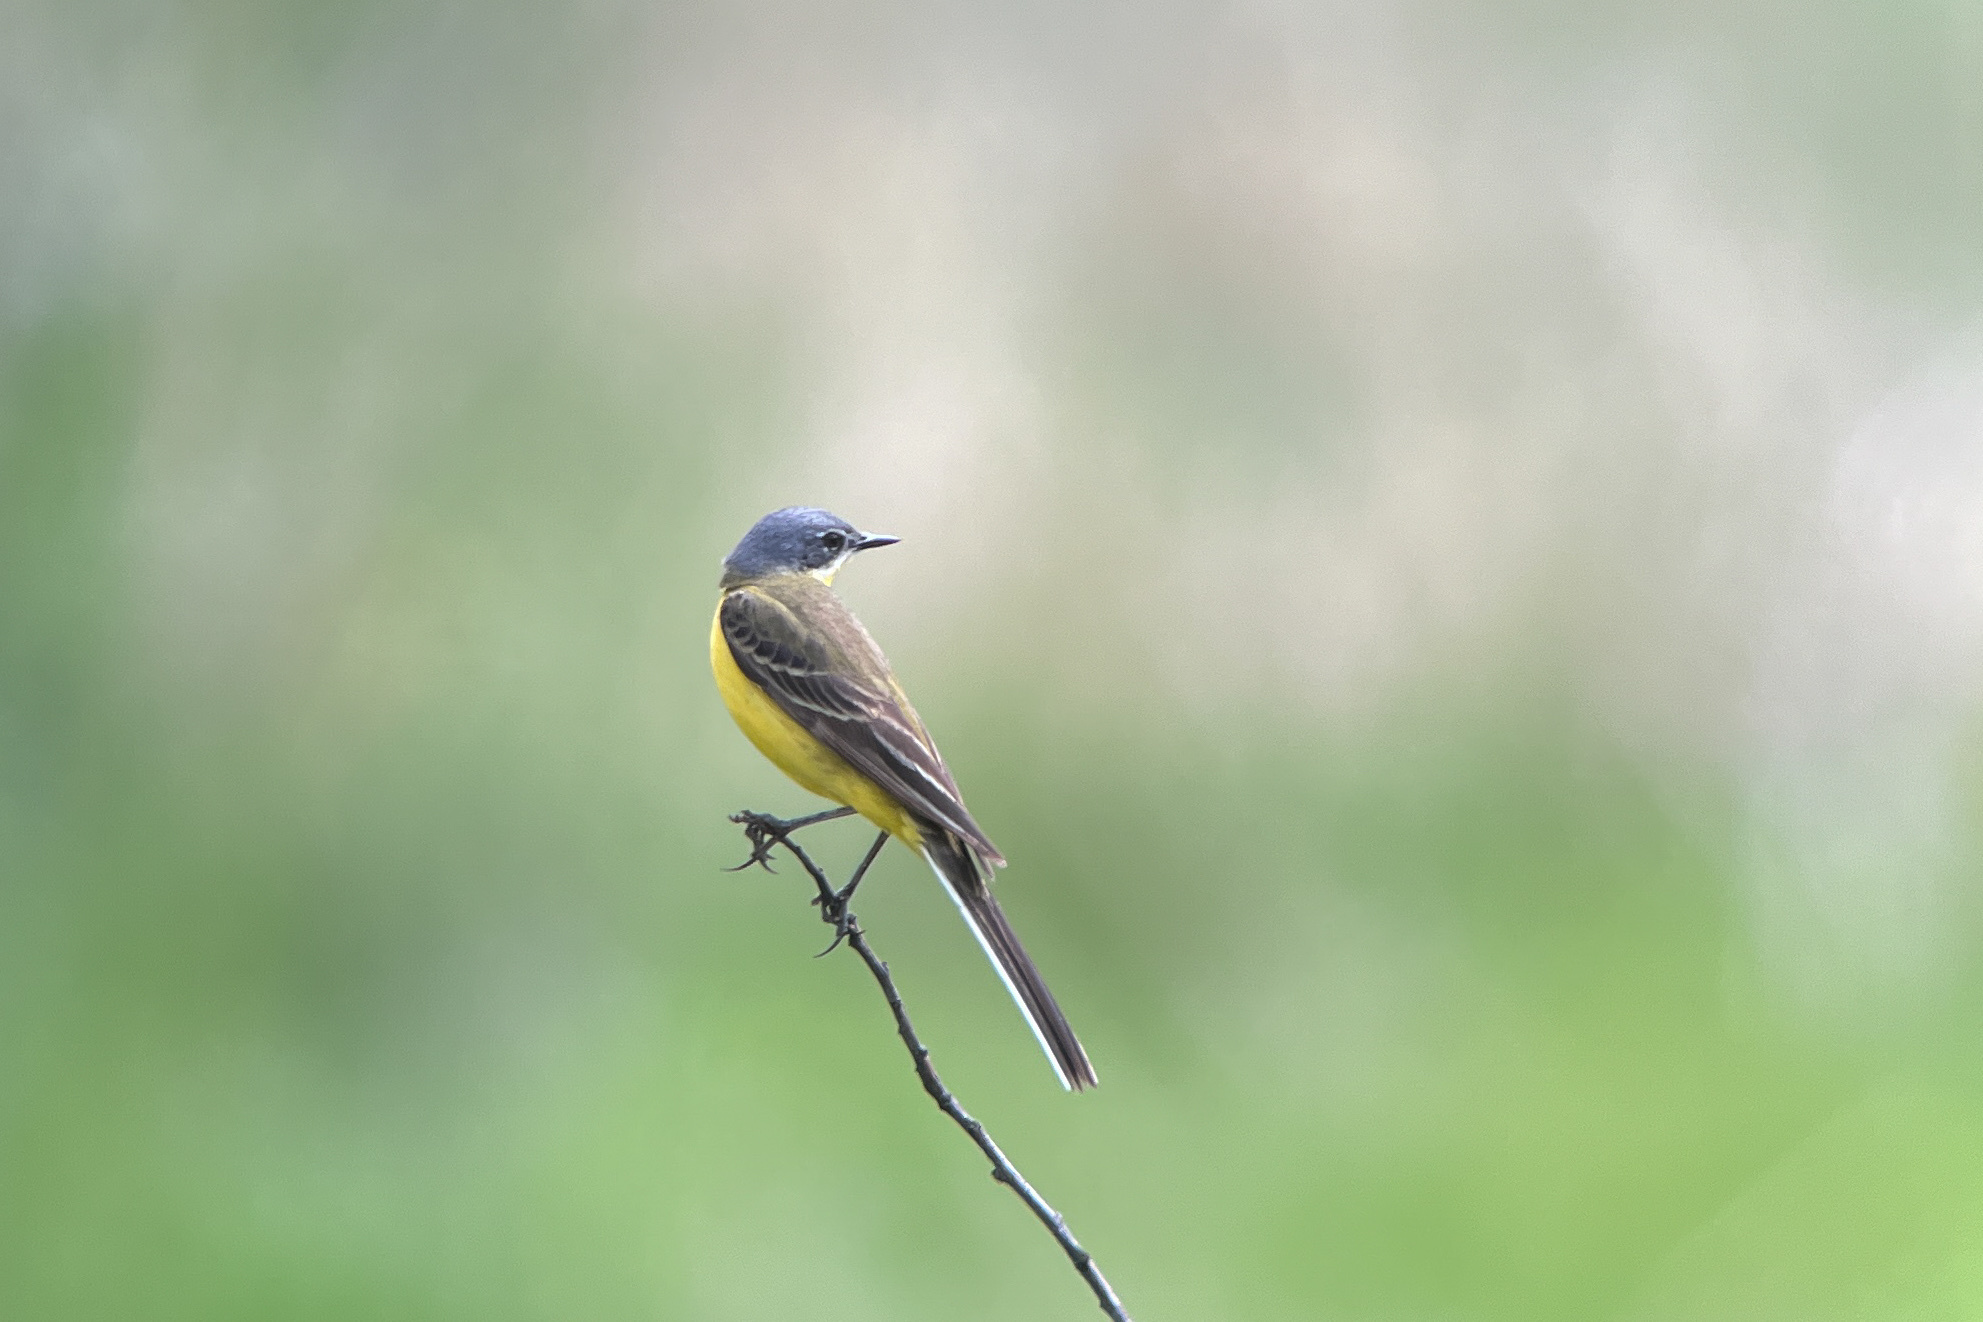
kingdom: Animalia
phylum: Chordata
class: Aves
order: Passeriformes
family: Motacillidae
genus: Motacilla
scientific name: Motacilla flava
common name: Western yellow wagtail
